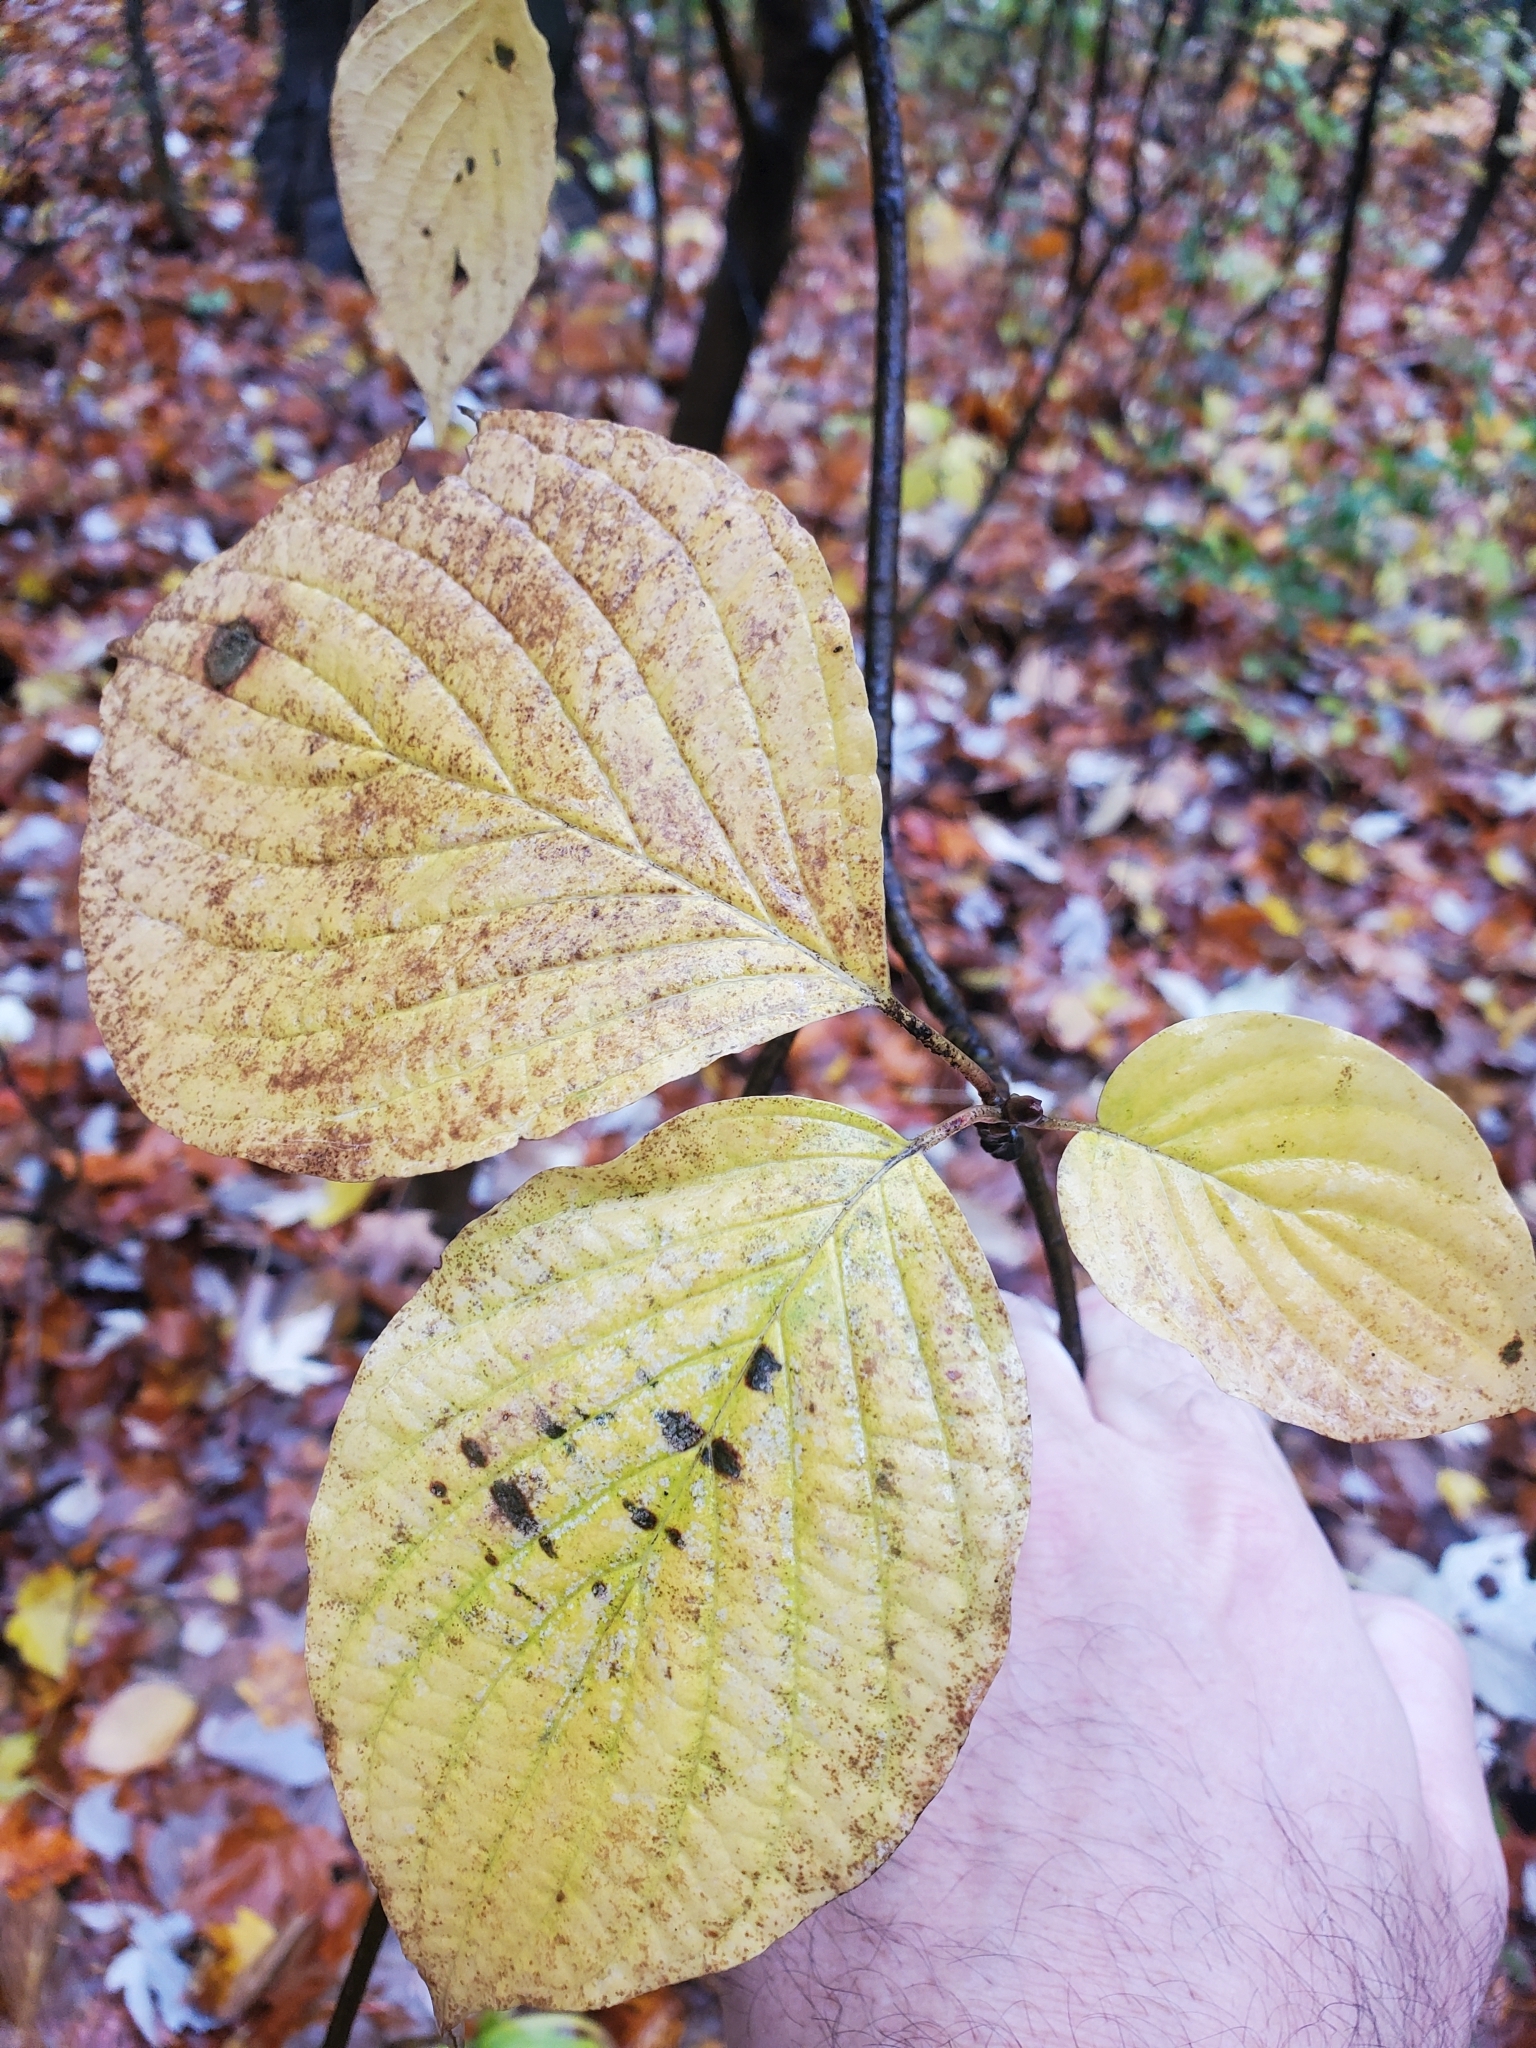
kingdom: Plantae
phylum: Tracheophyta
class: Magnoliopsida
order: Cornales
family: Cornaceae
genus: Cornus
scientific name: Cornus rugosa
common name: Round-leaf dogwood
